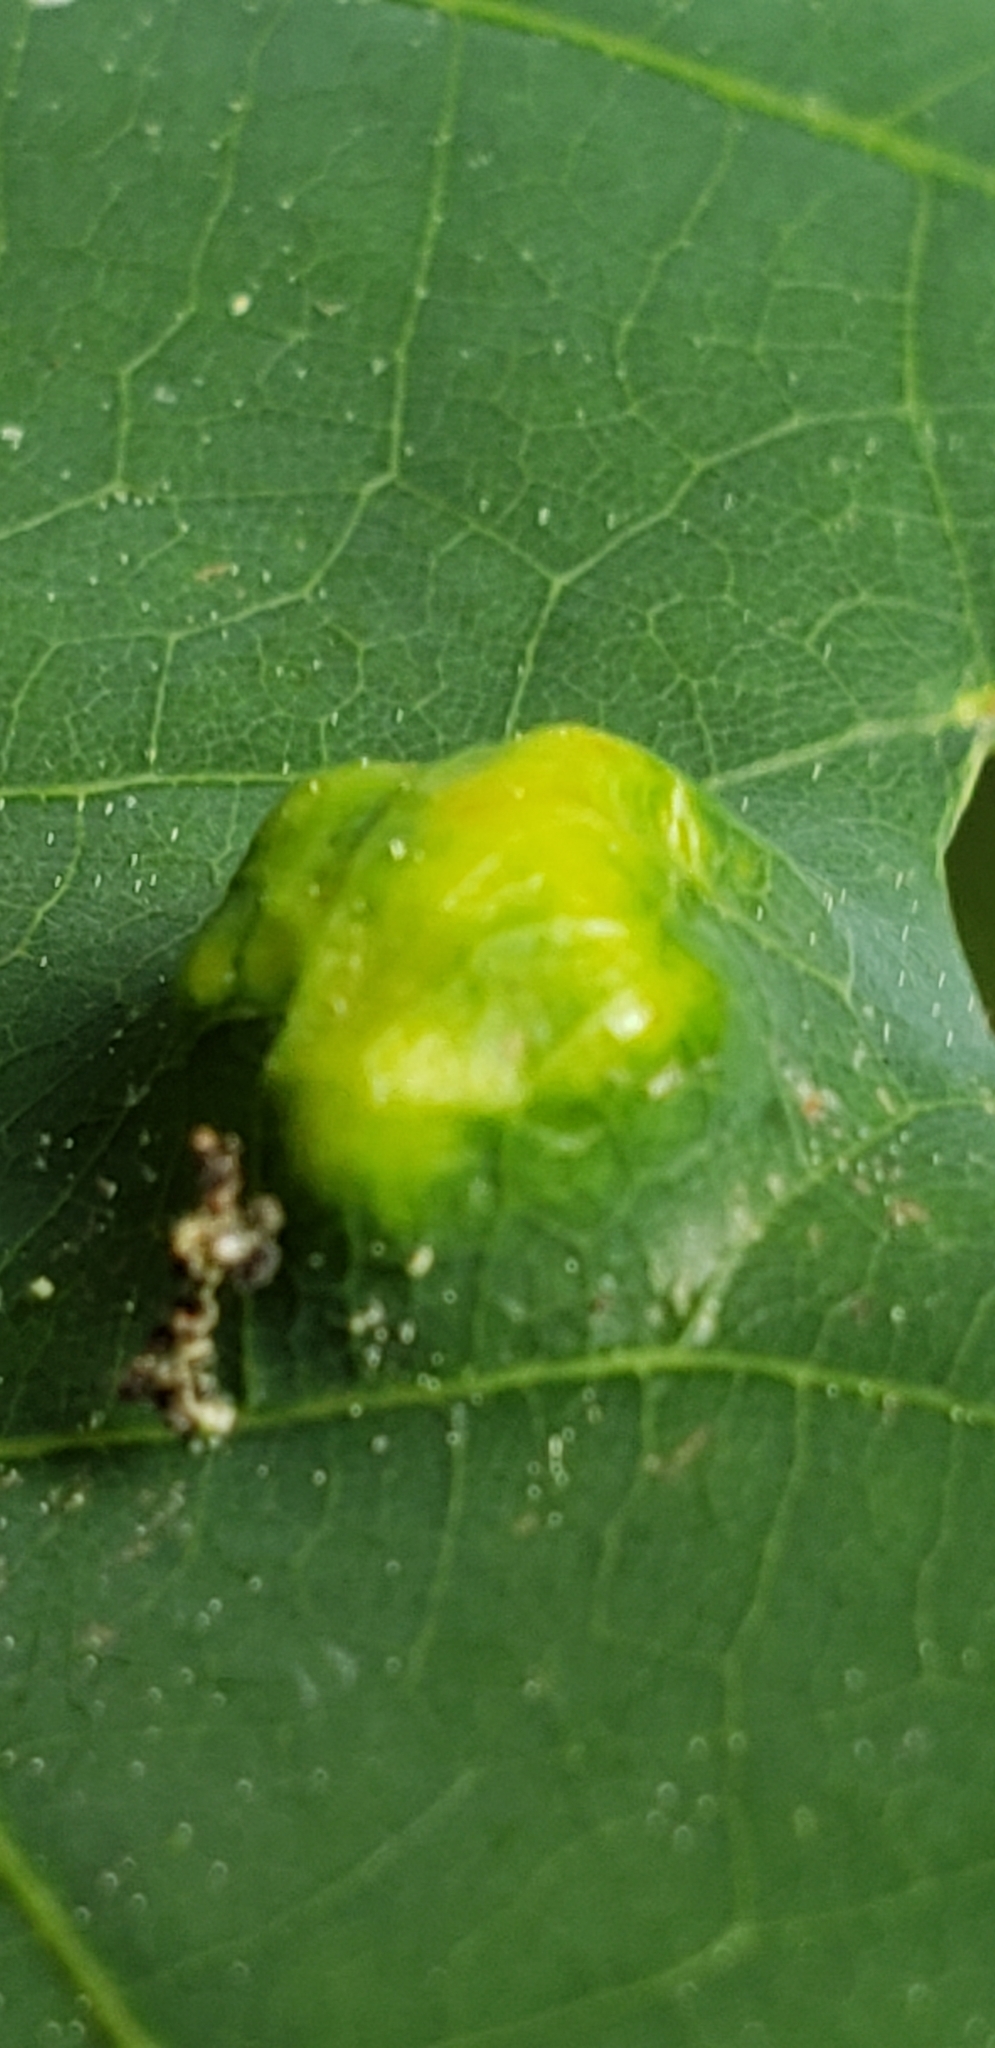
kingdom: Animalia
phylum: Arthropoda
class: Arachnida
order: Trombidiformes
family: Eriophyidae
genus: Aceria
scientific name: Aceria
